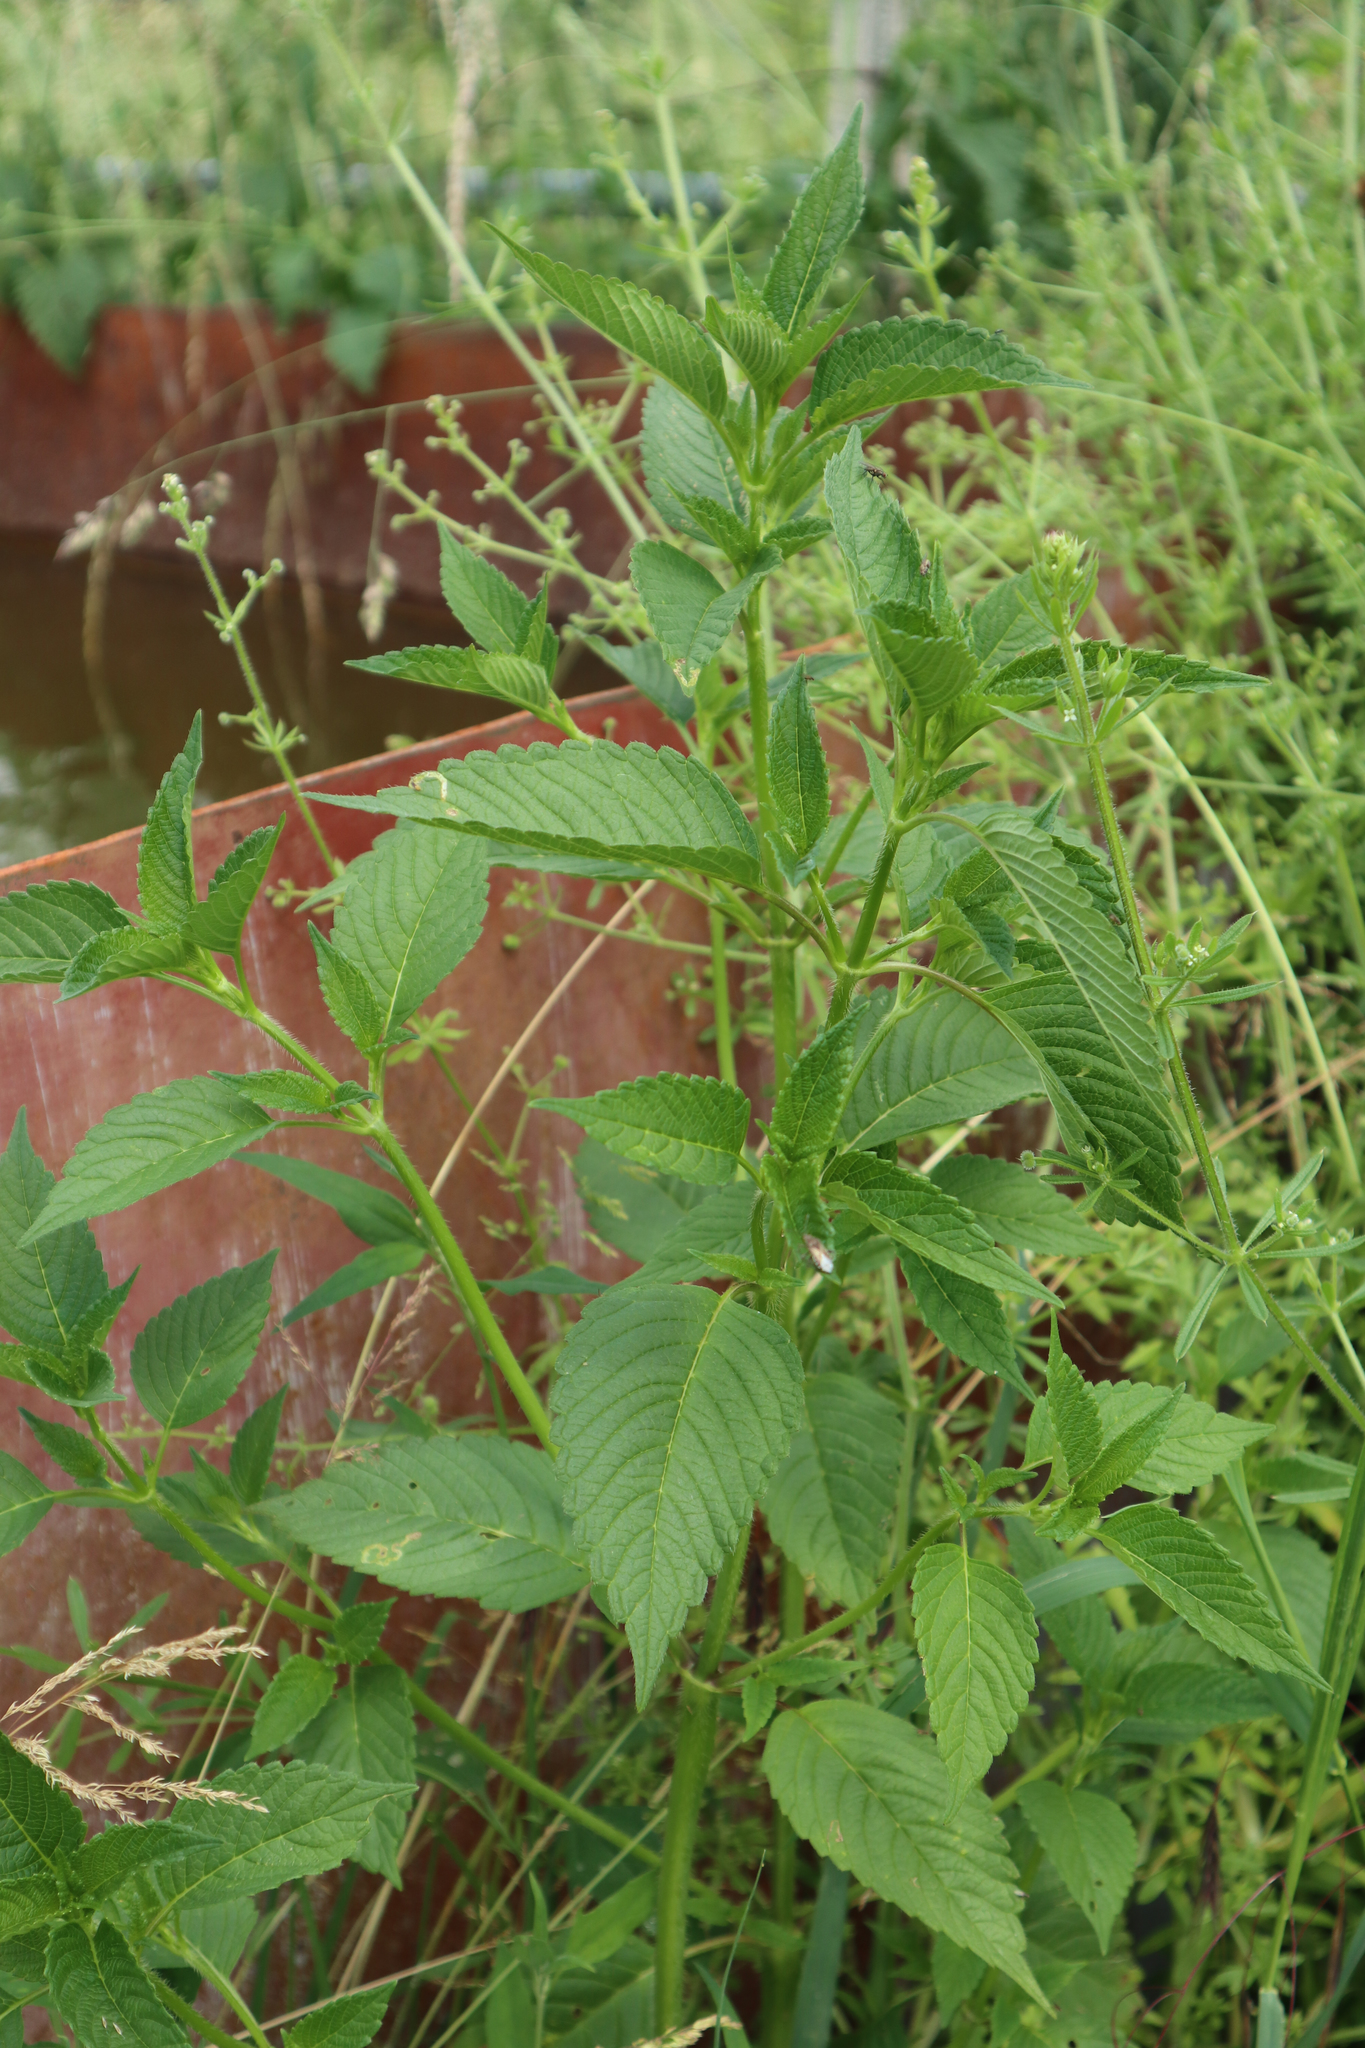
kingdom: Plantae
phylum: Tracheophyta
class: Magnoliopsida
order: Lamiales
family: Lamiaceae
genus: Galeopsis
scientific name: Galeopsis tetrahit
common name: Common hemp-nettle
